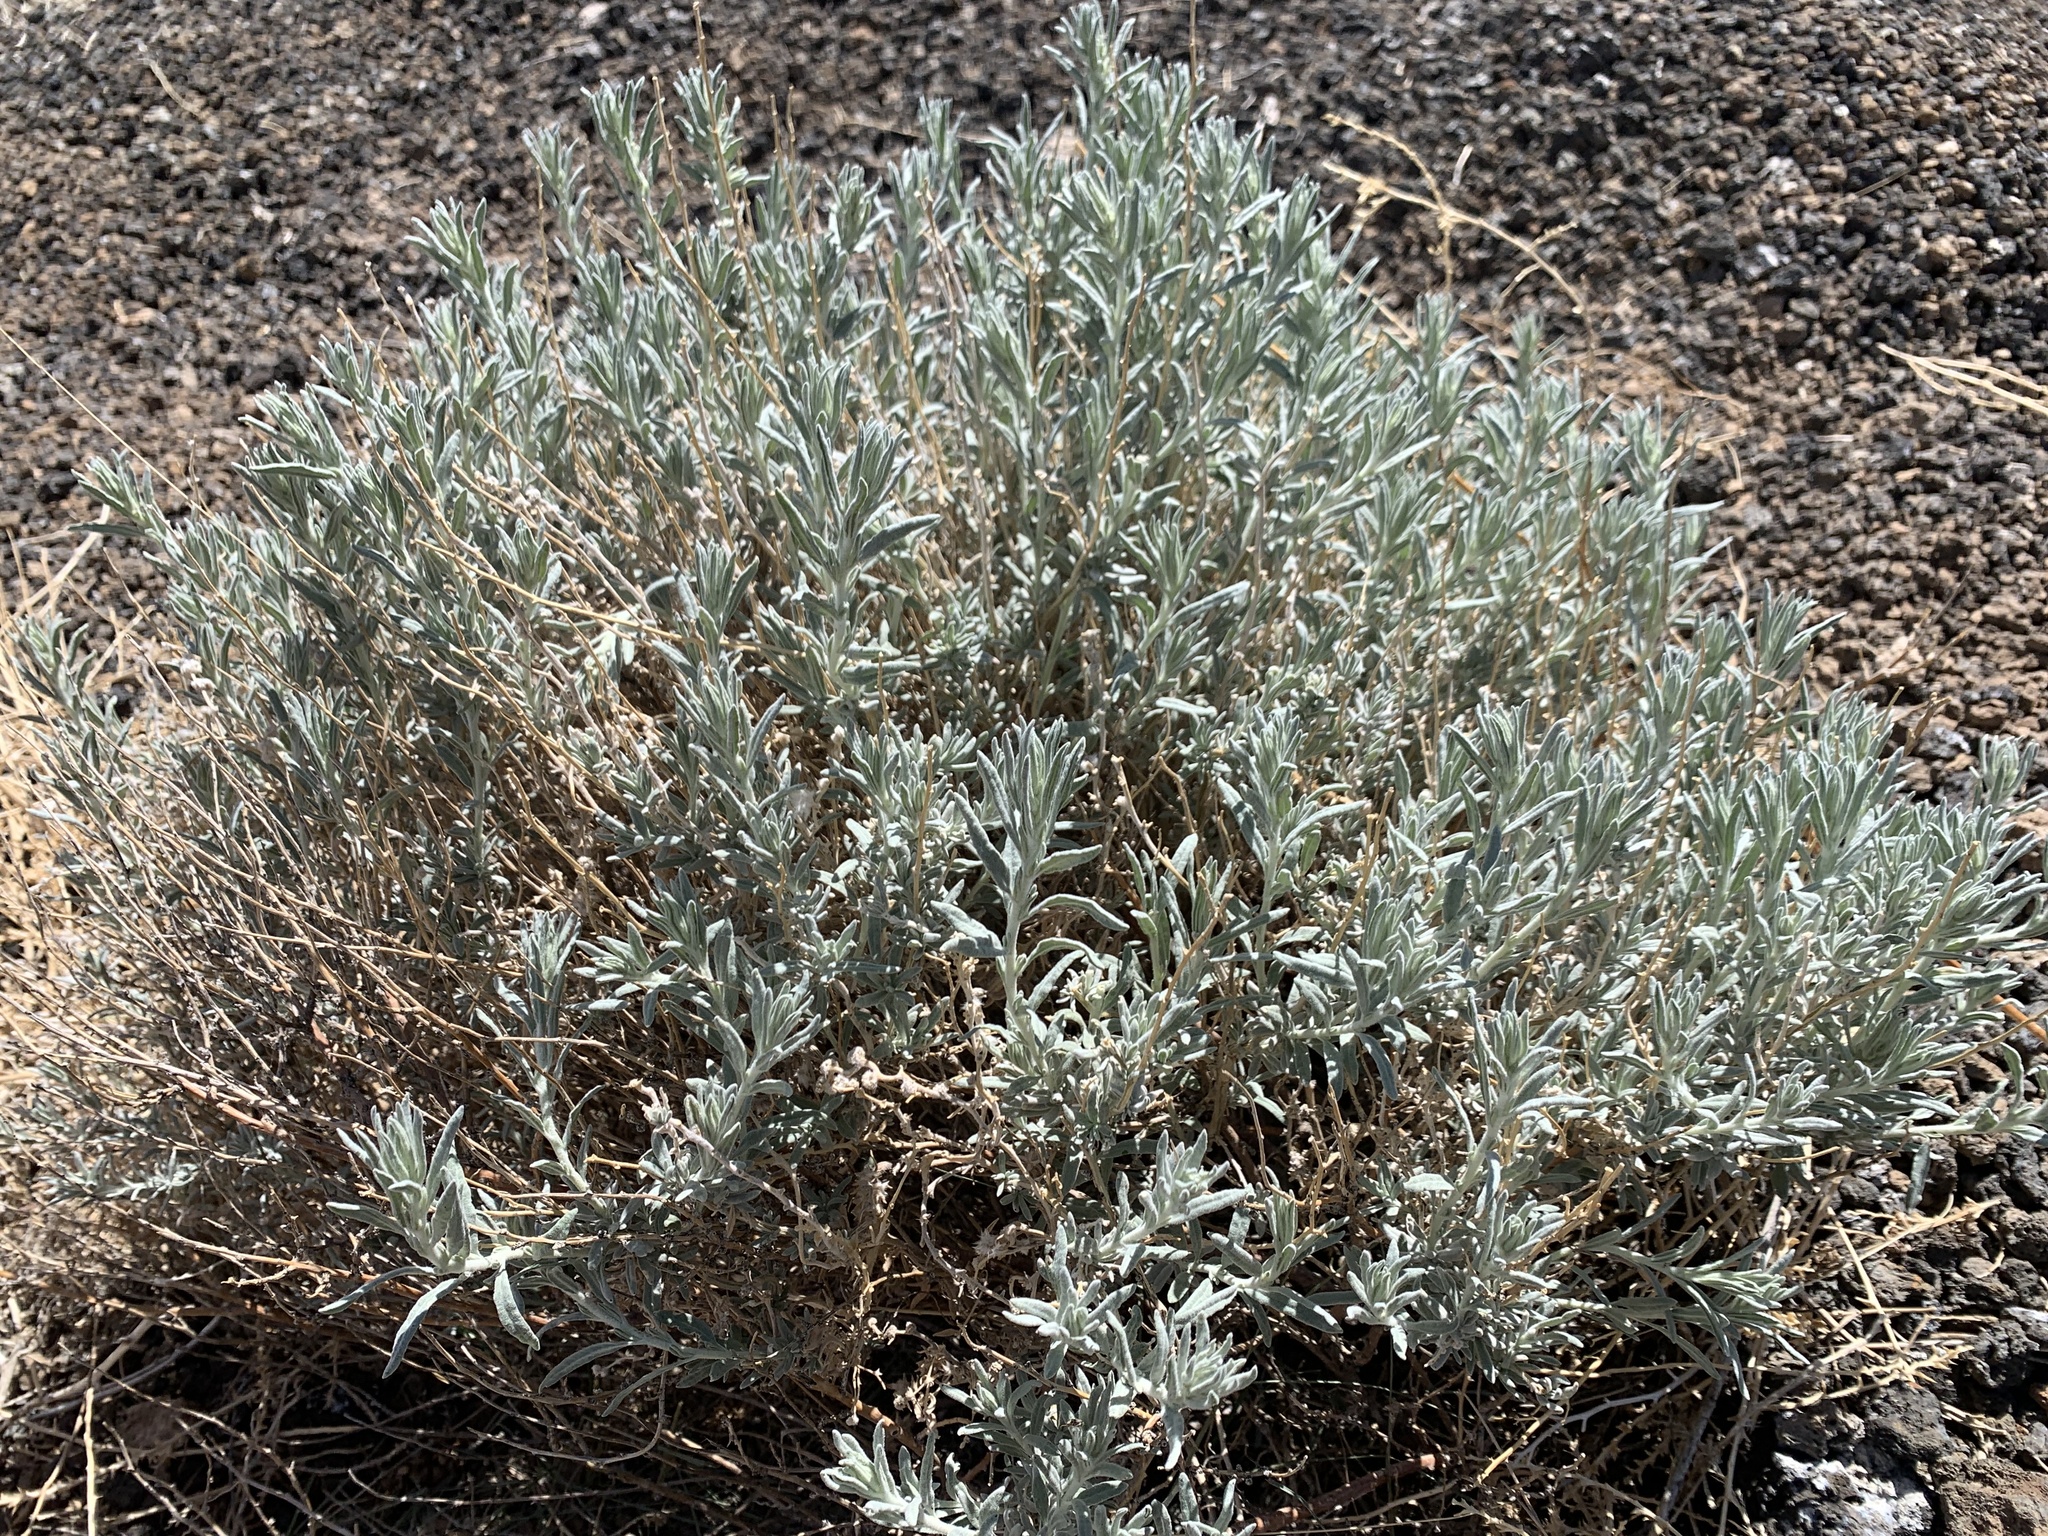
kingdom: Plantae
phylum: Tracheophyta
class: Magnoliopsida
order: Caryophyllales
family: Amaranthaceae
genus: Krascheninnikovia
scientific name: Krascheninnikovia lanata
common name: Winterfat
